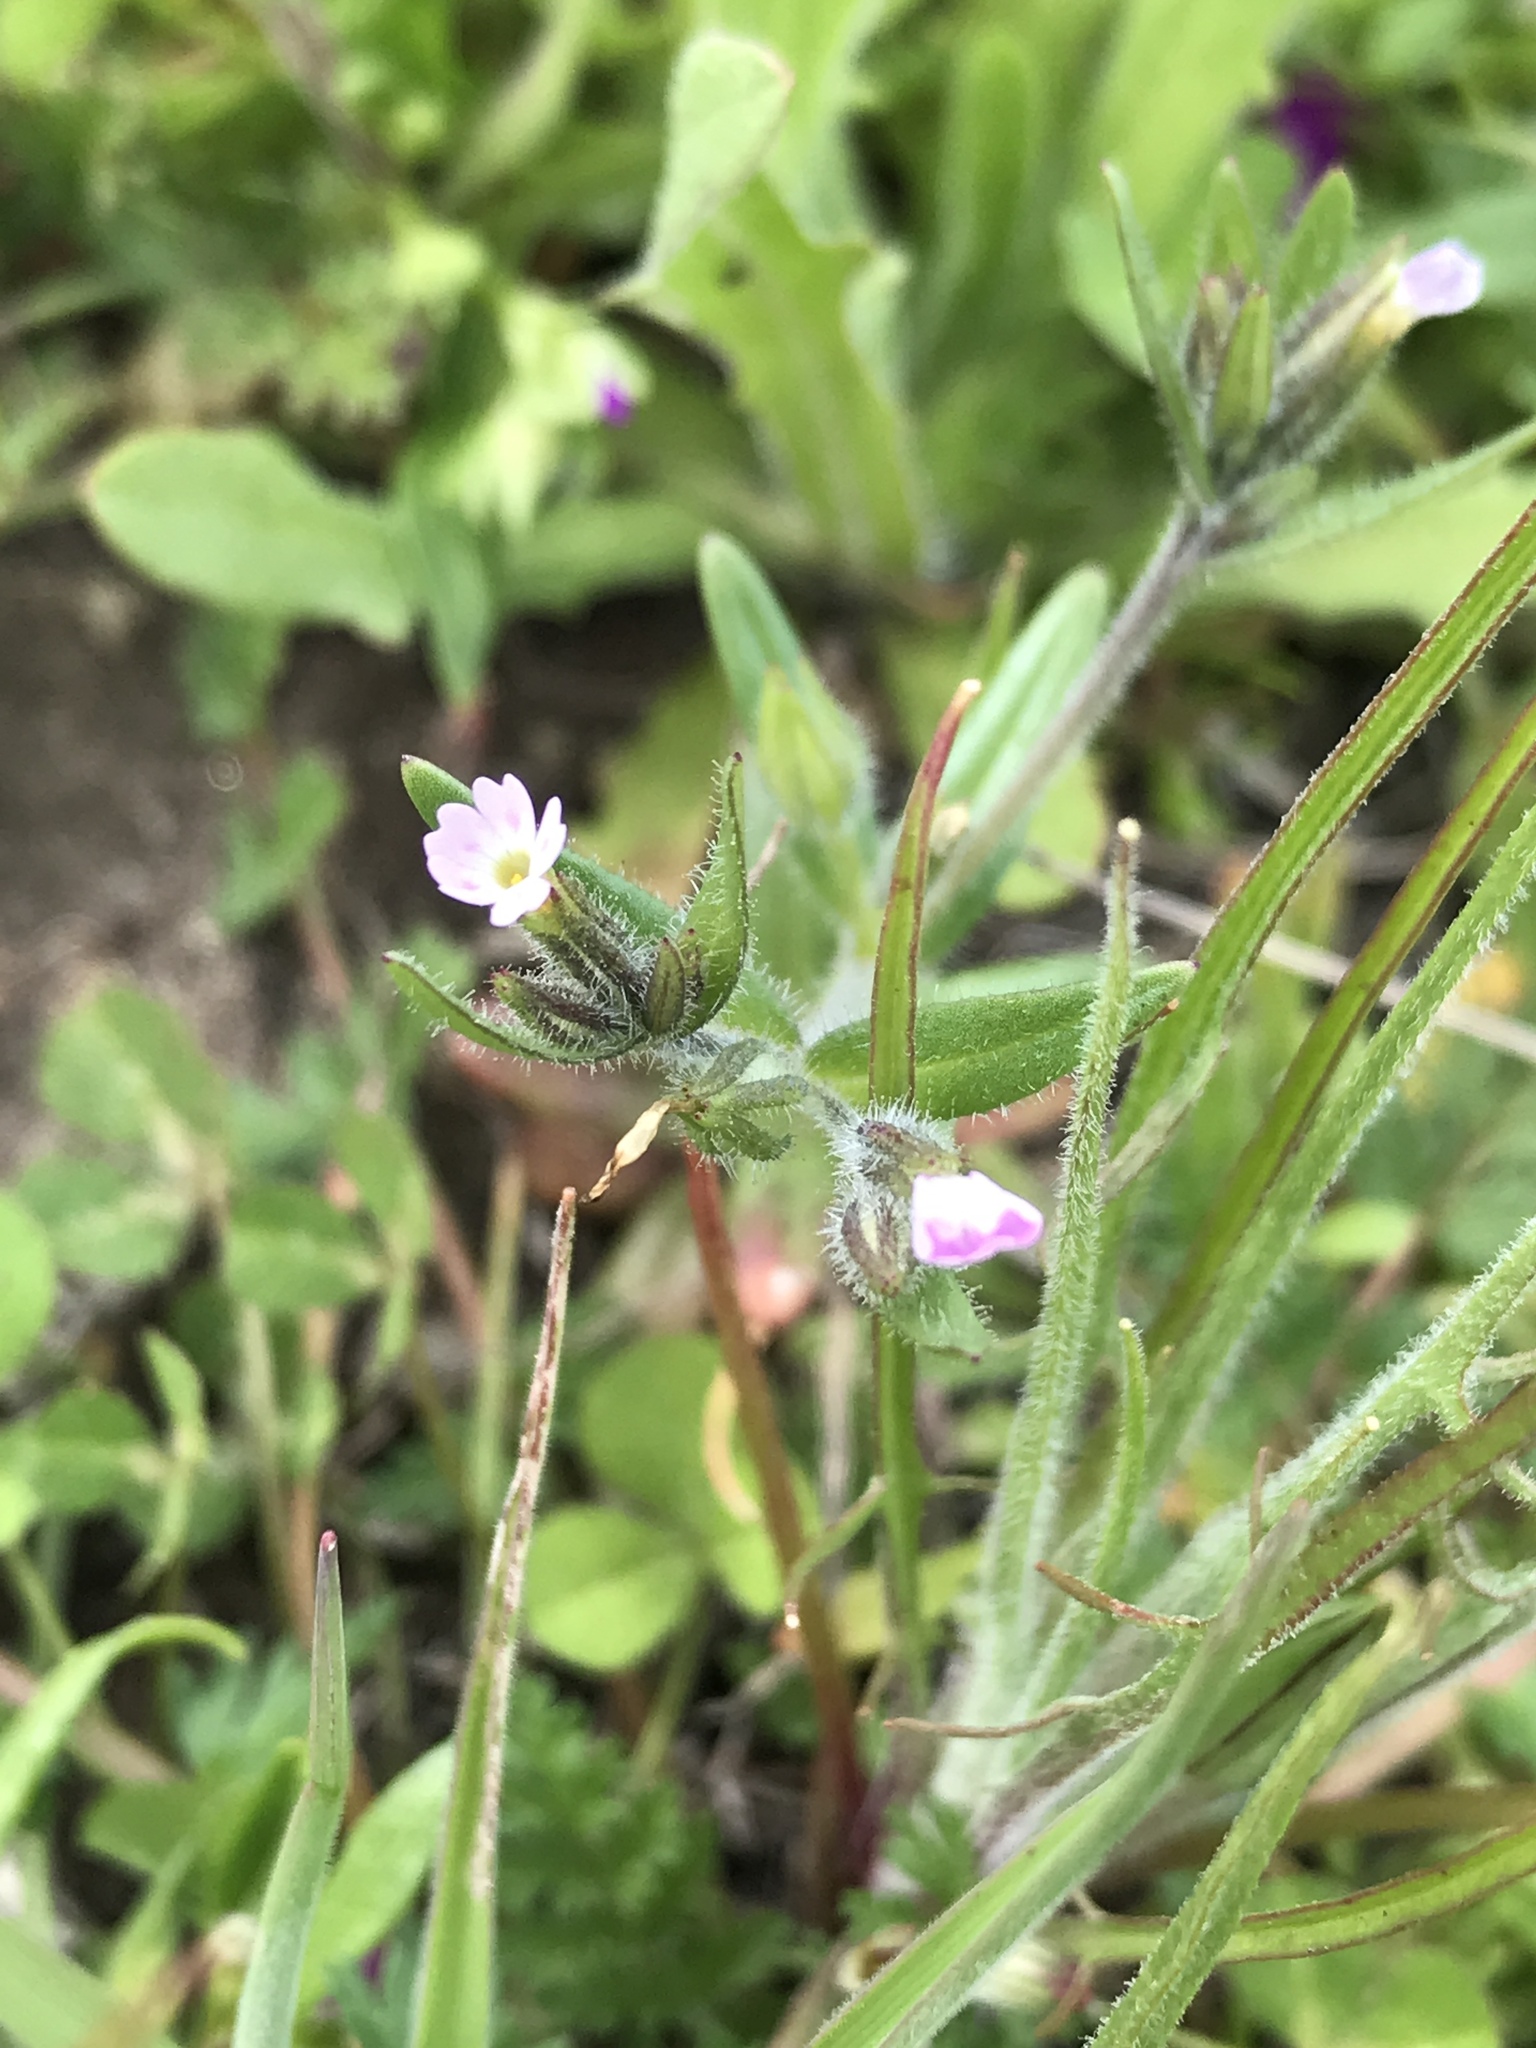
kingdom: Plantae
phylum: Tracheophyta
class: Magnoliopsida
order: Ericales
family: Polemoniaceae
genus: Phlox
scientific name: Phlox gracilis
